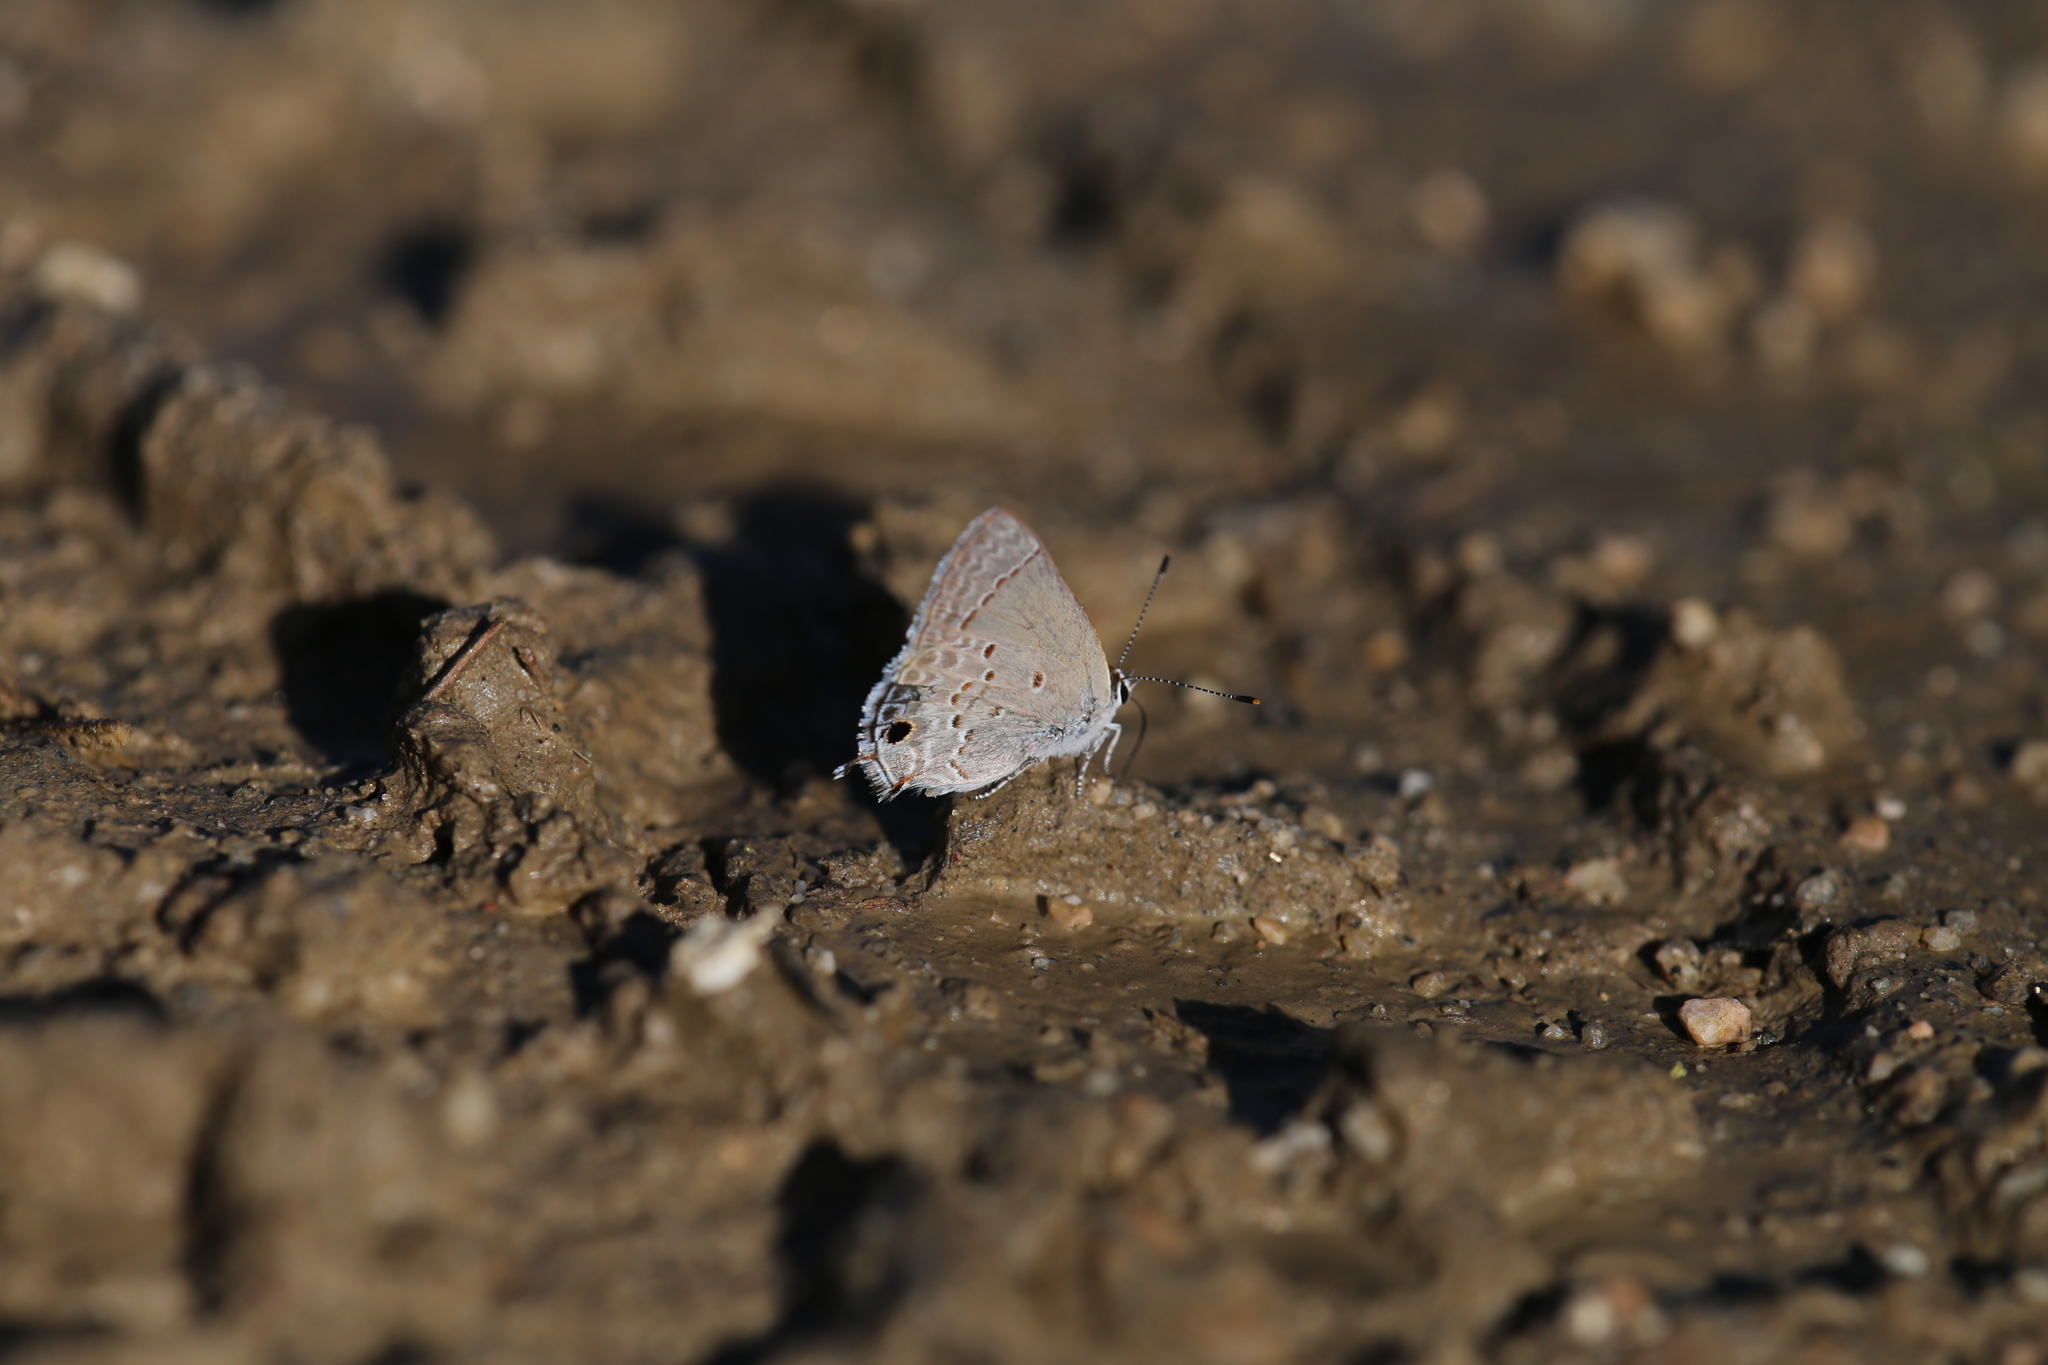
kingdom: Animalia
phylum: Arthropoda
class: Insecta
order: Lepidoptera
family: Lycaenidae
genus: Callicista
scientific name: Callicista columella
